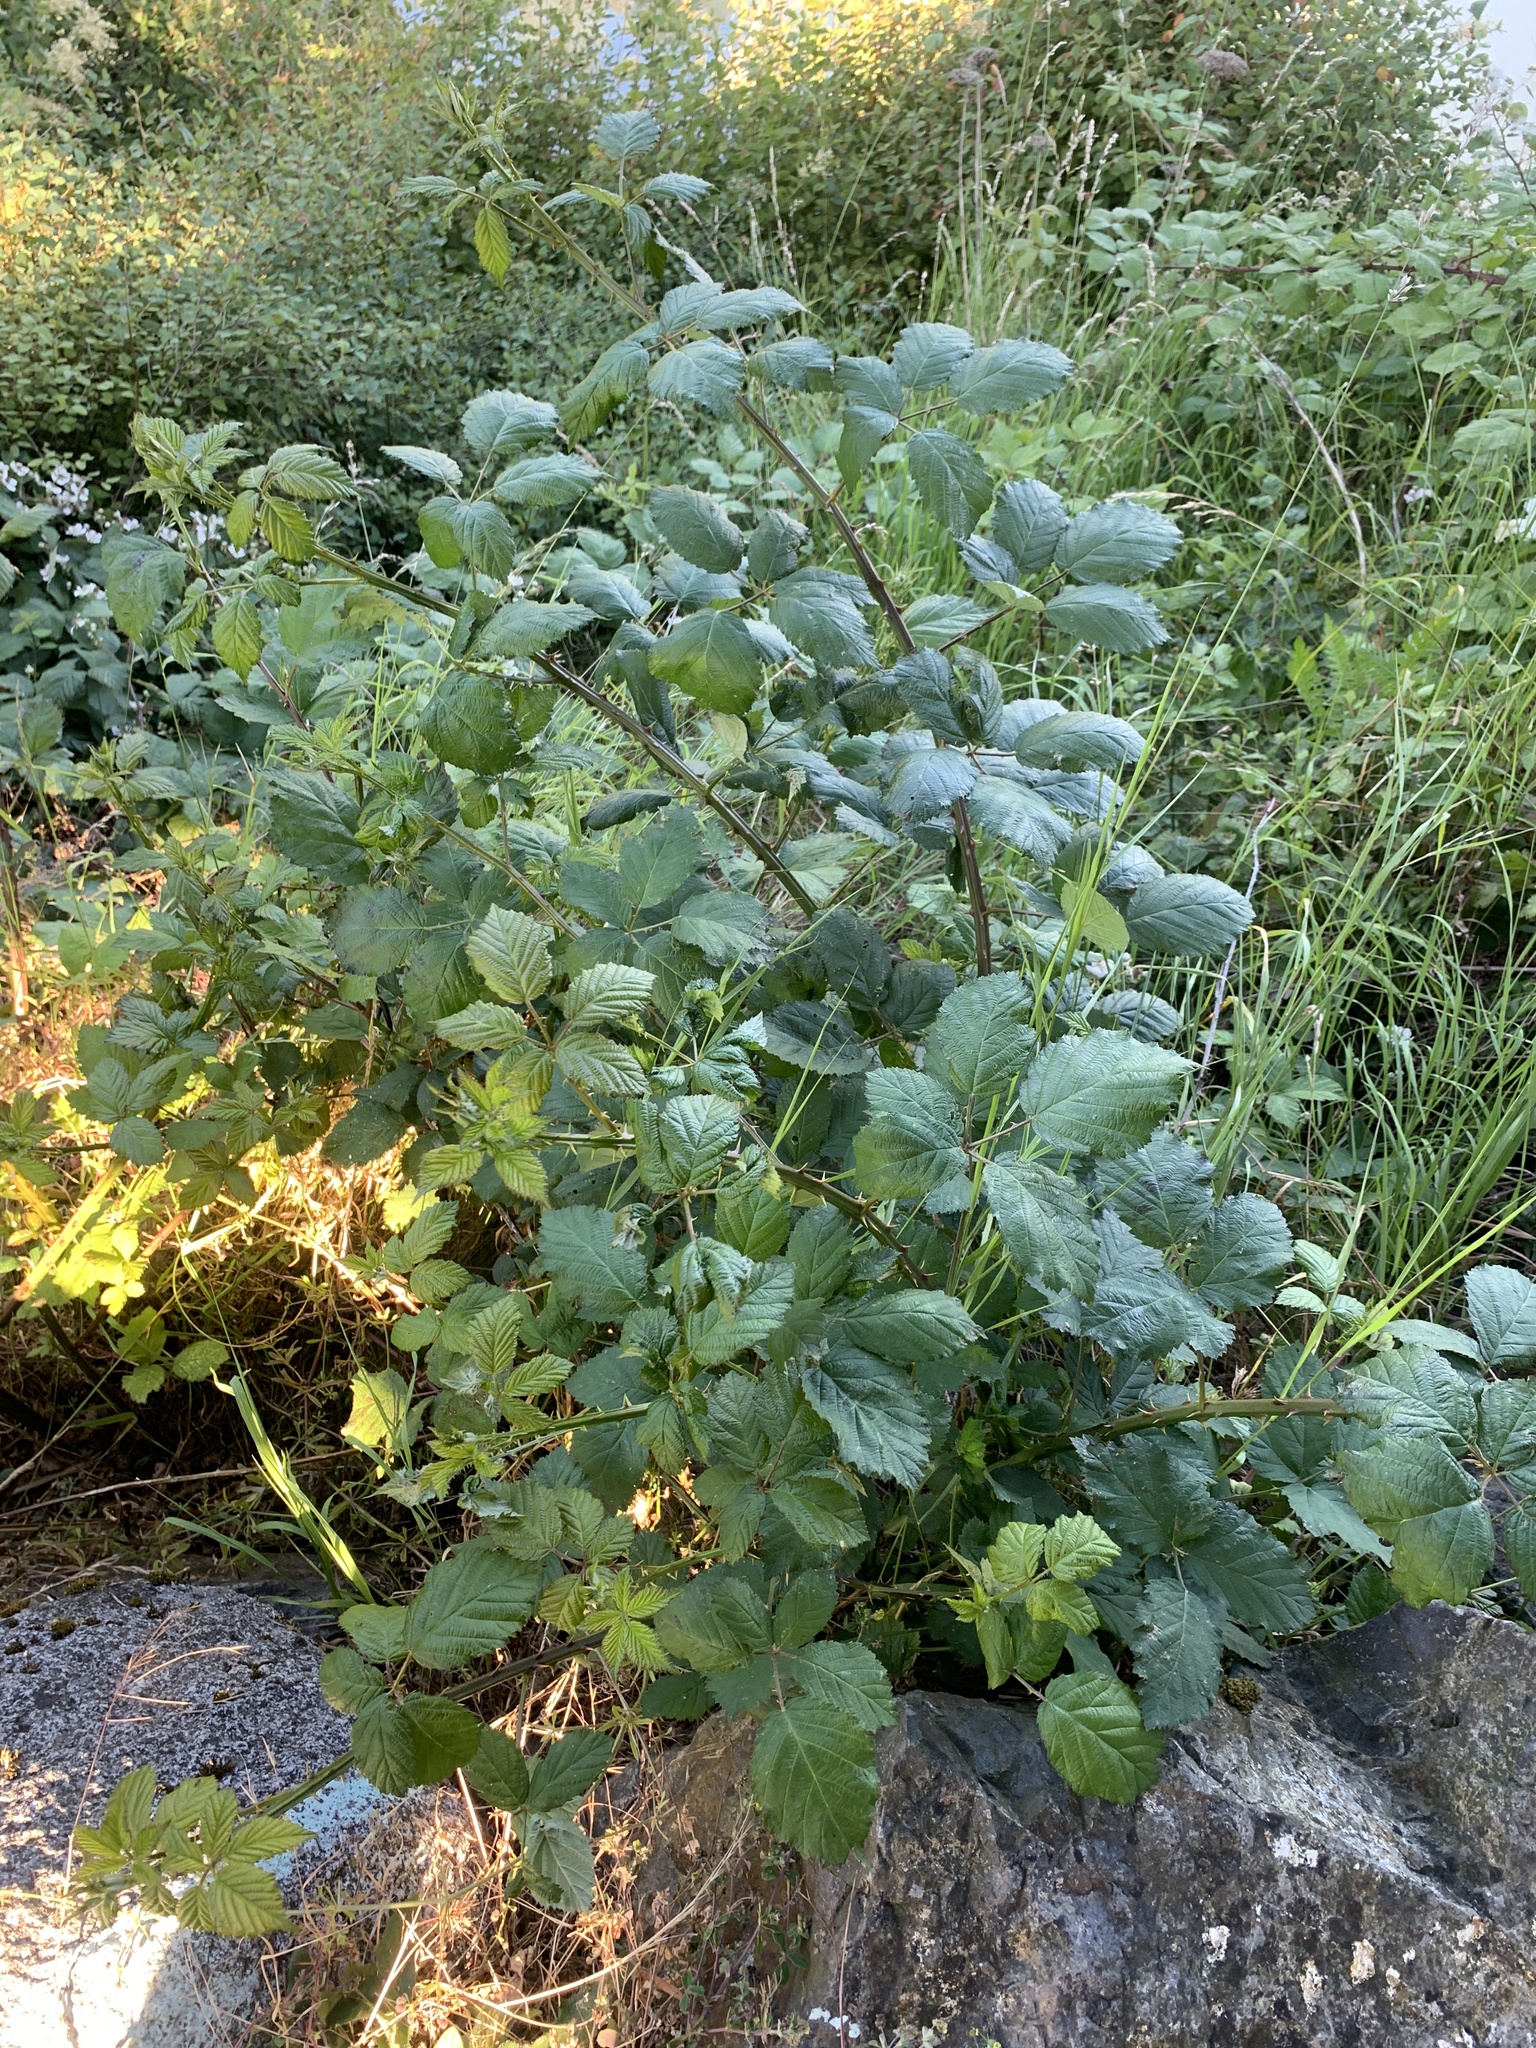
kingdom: Plantae
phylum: Tracheophyta
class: Magnoliopsida
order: Rosales
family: Rosaceae
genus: Rubus
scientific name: Rubus bifrons
